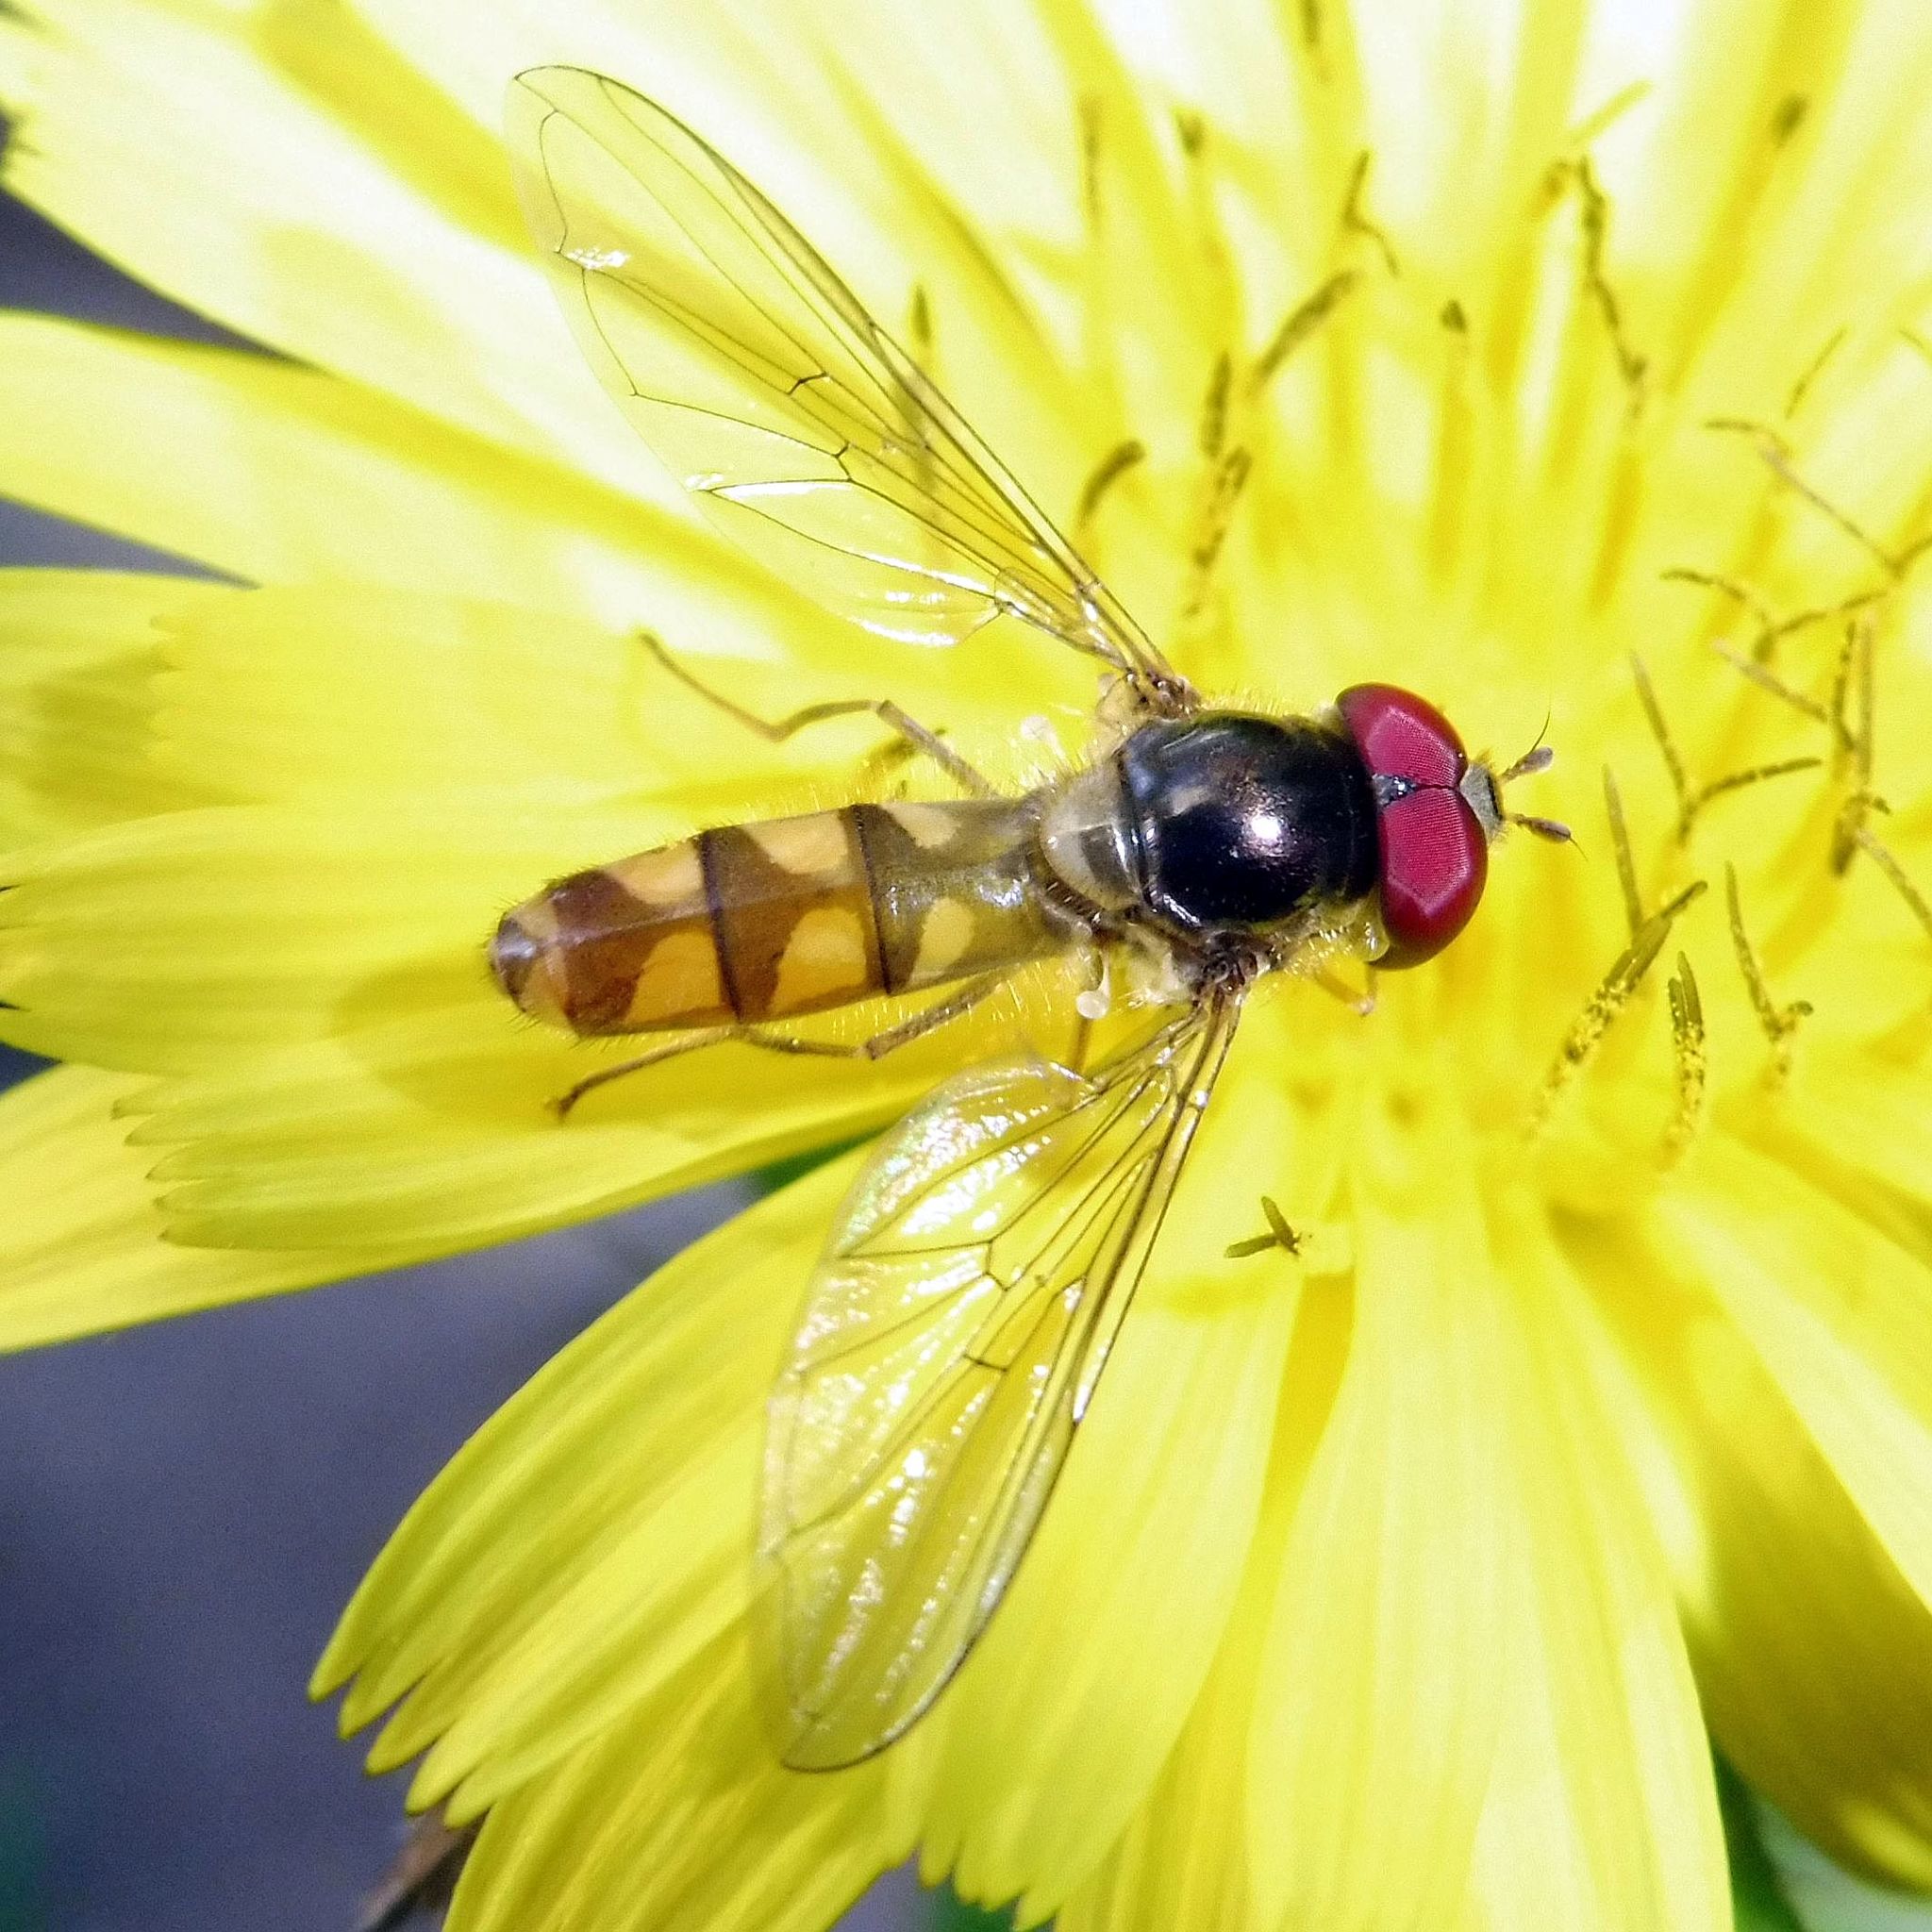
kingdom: Animalia
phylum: Arthropoda
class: Insecta
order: Diptera
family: Syrphidae
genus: Meliscaeva
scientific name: Meliscaeva auricollis
